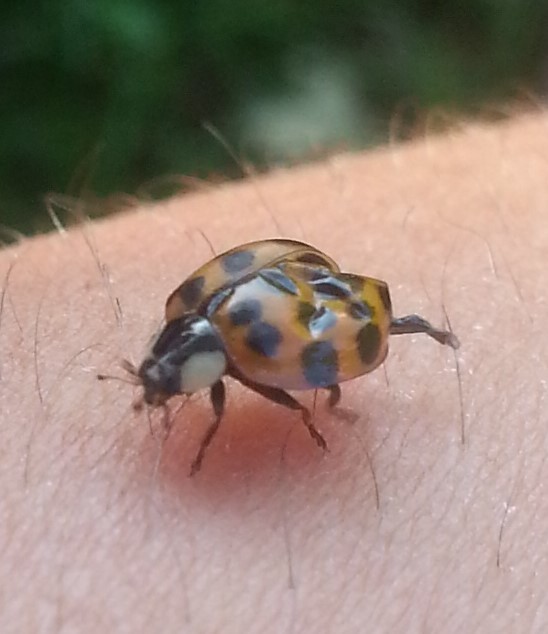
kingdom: Animalia
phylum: Arthropoda
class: Insecta
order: Coleoptera
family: Coccinellidae
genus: Harmonia
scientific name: Harmonia axyridis
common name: Harlequin ladybird
